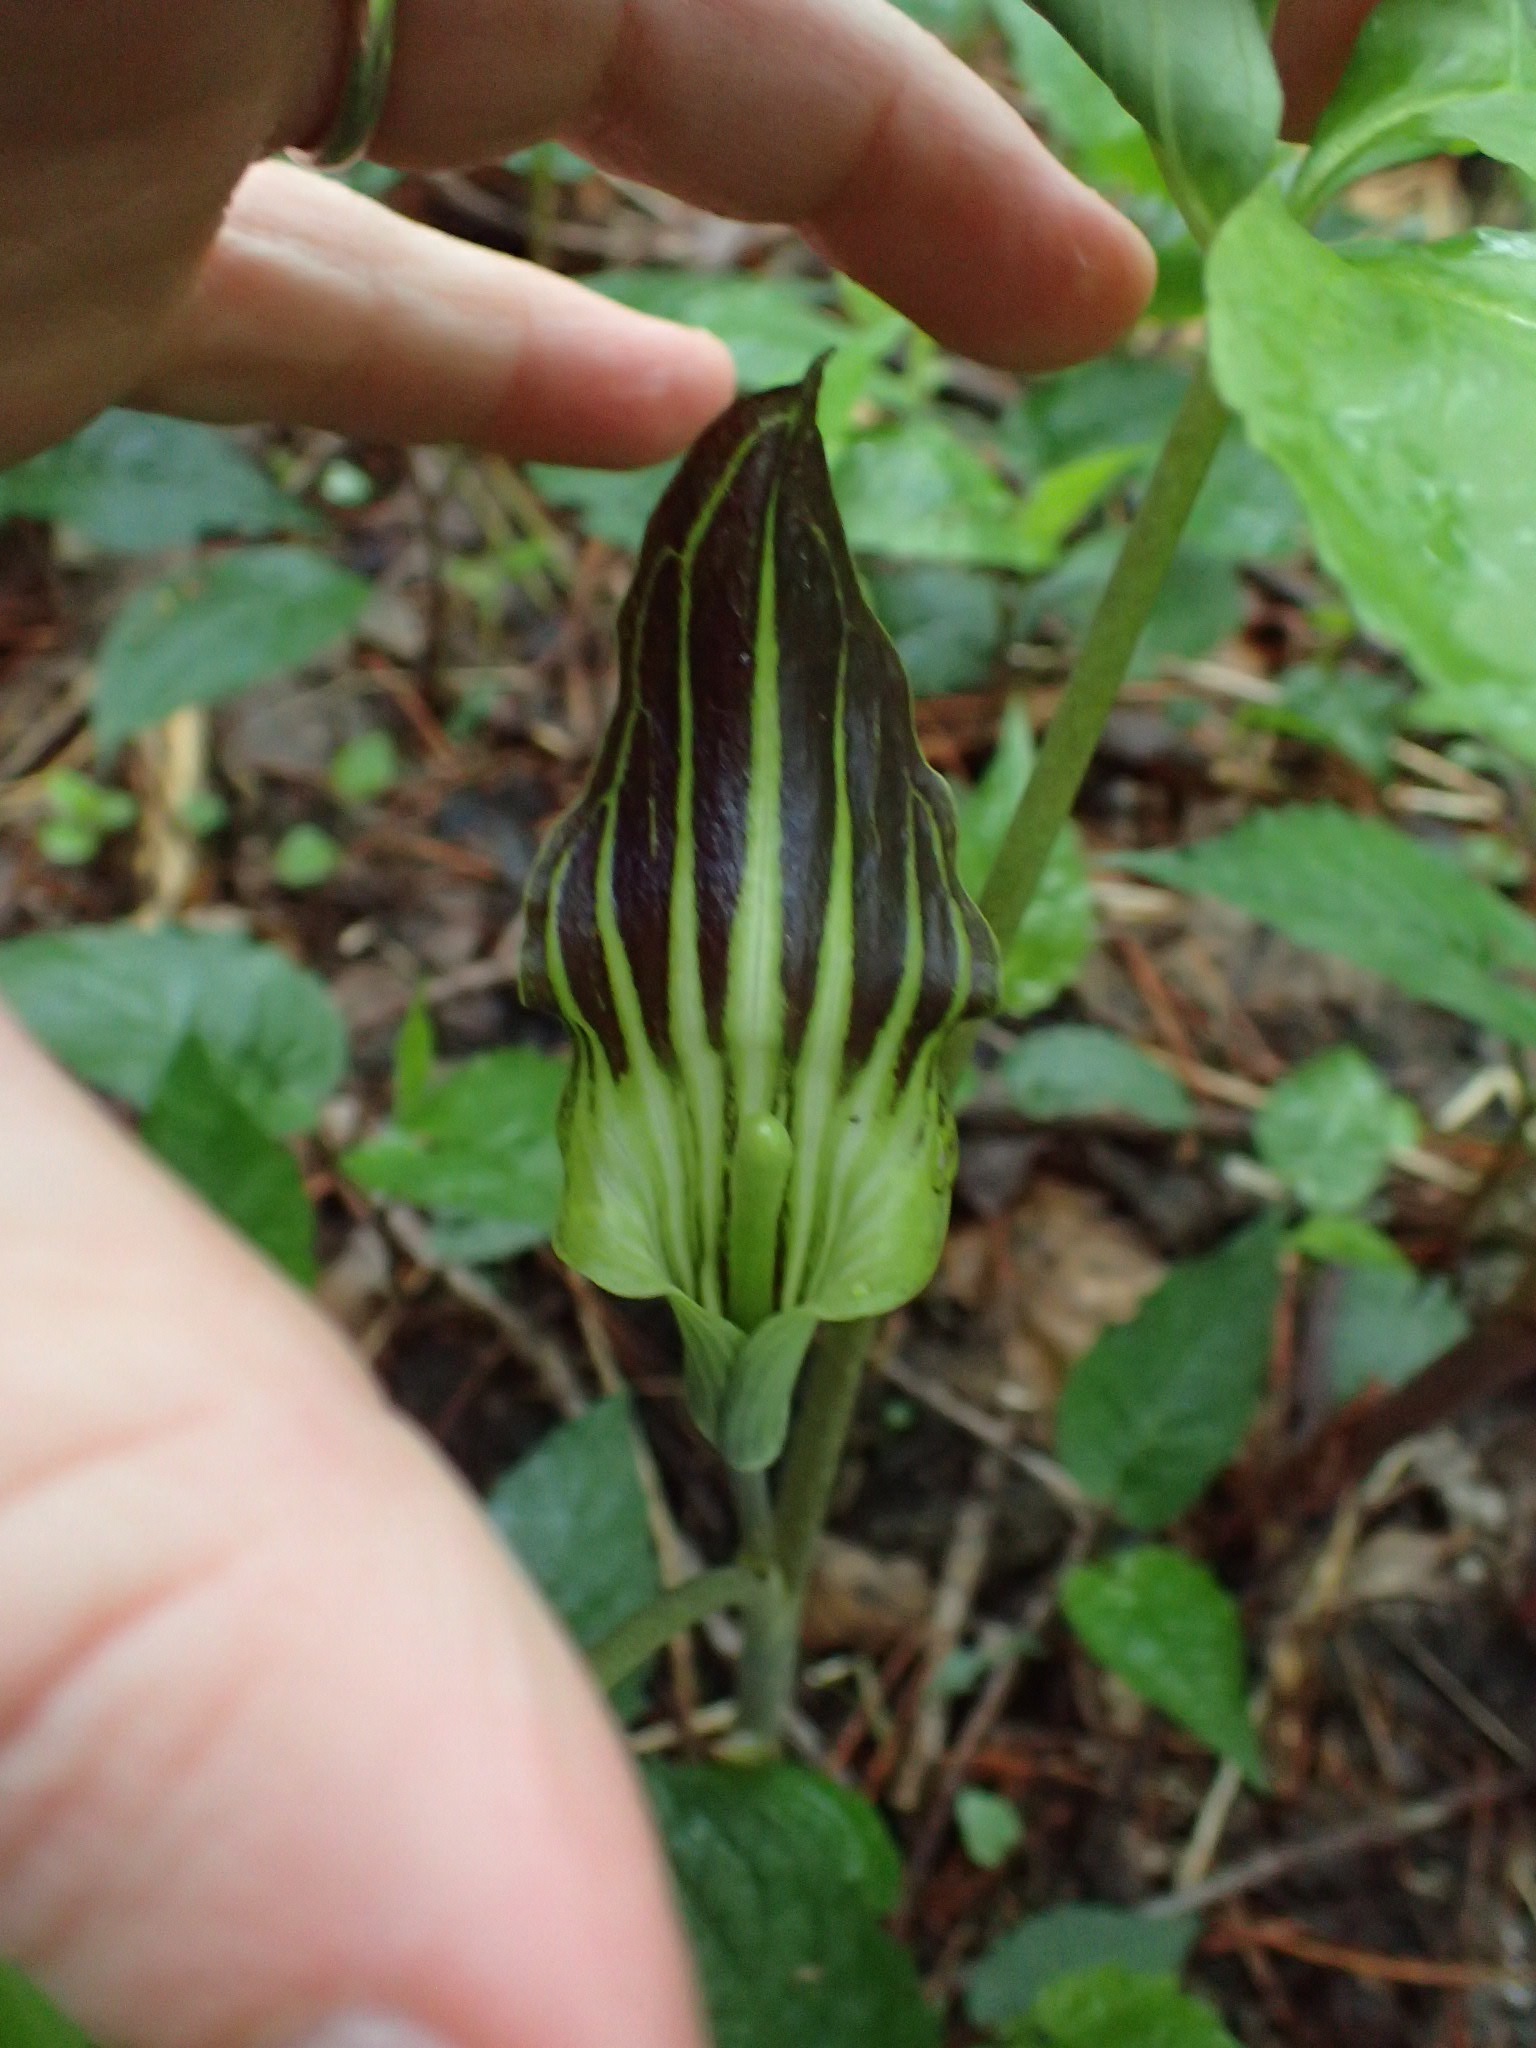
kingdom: Plantae
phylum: Tracheophyta
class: Liliopsida
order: Alismatales
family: Araceae
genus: Arisaema
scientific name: Arisaema triphyllum
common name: Jack-in-the-pulpit
